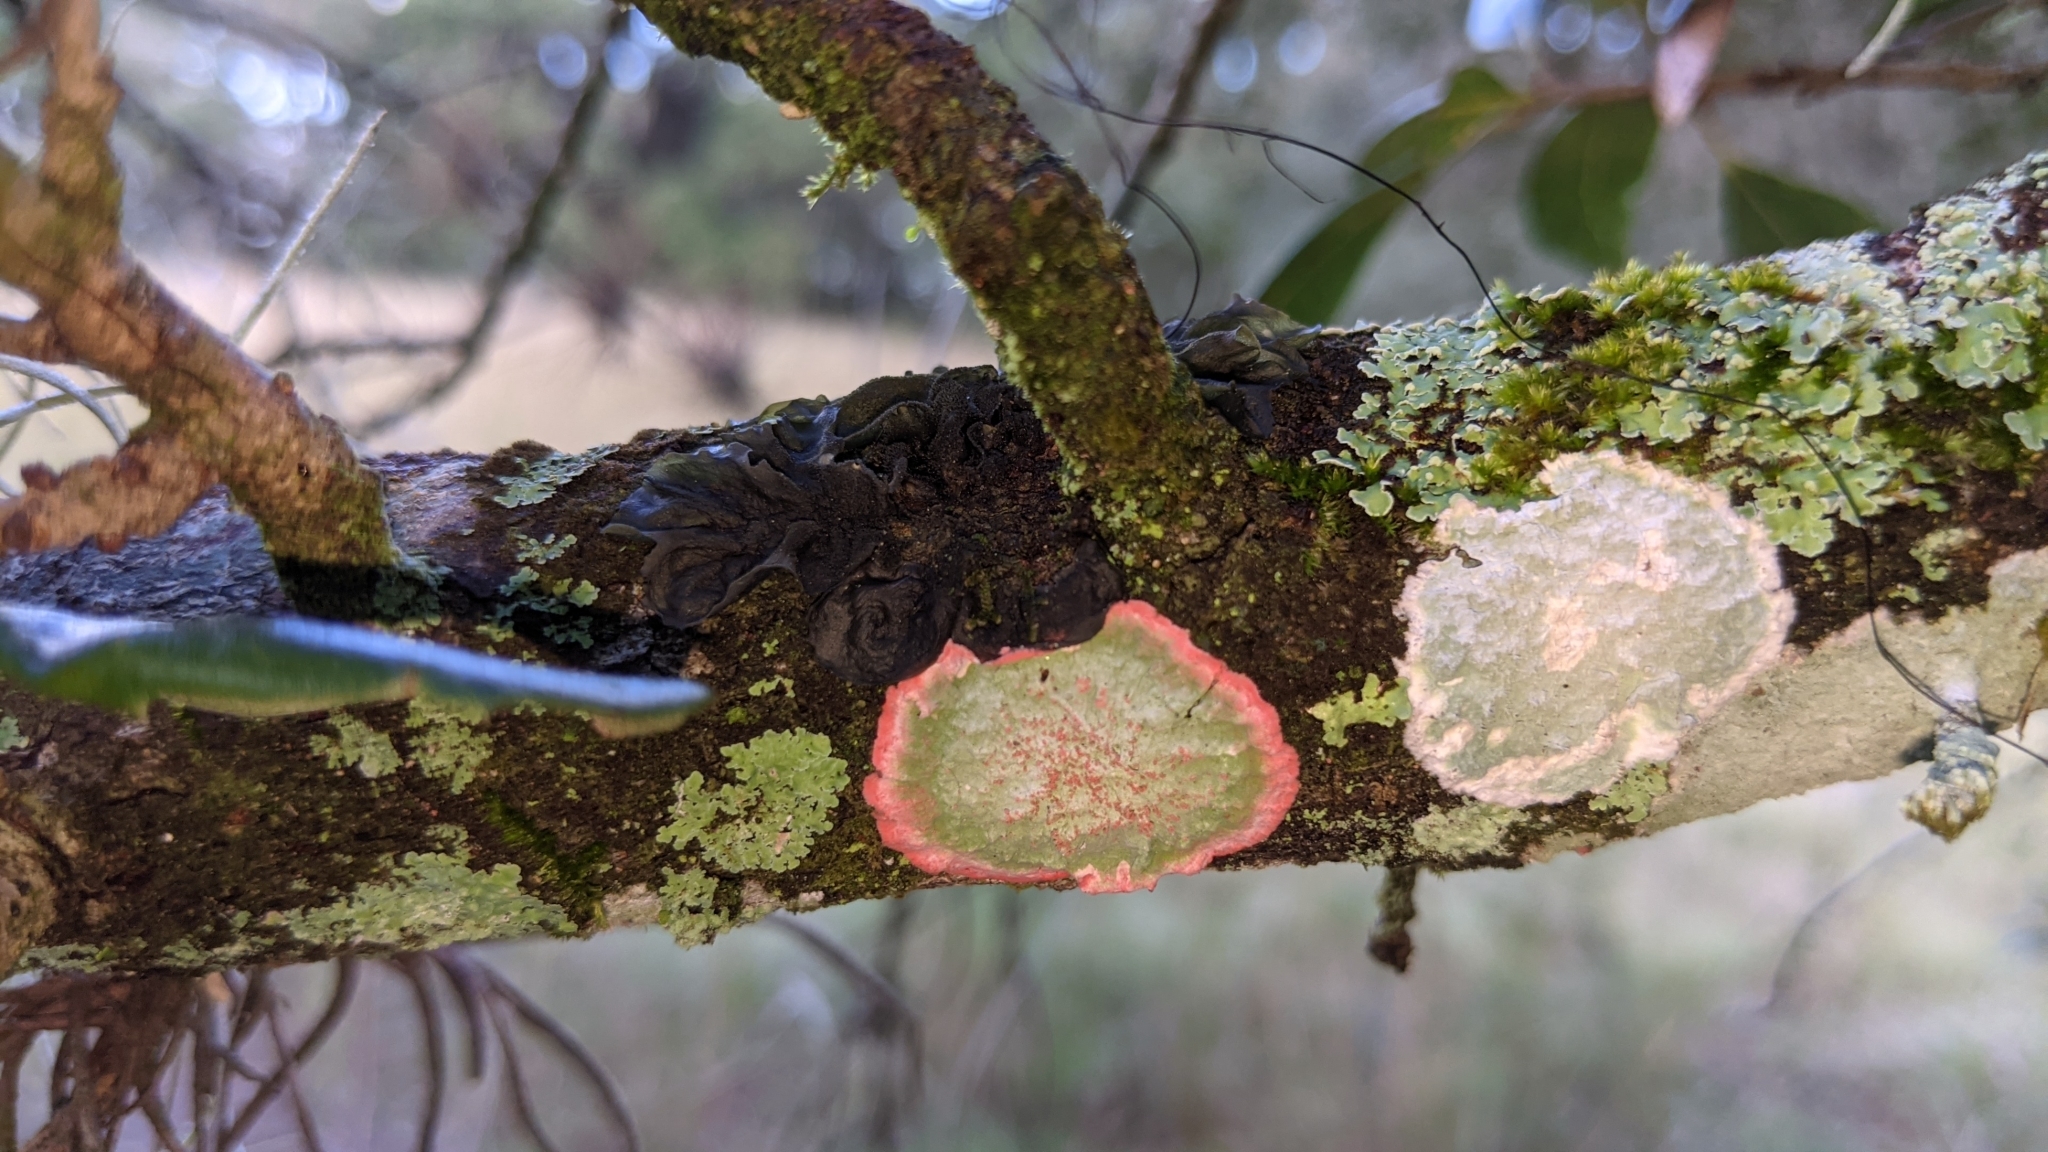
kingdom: Fungi
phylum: Ascomycota
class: Arthoniomycetes
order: Arthoniales
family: Arthoniaceae
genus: Herpothallon
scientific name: Herpothallon rubrocinctum
